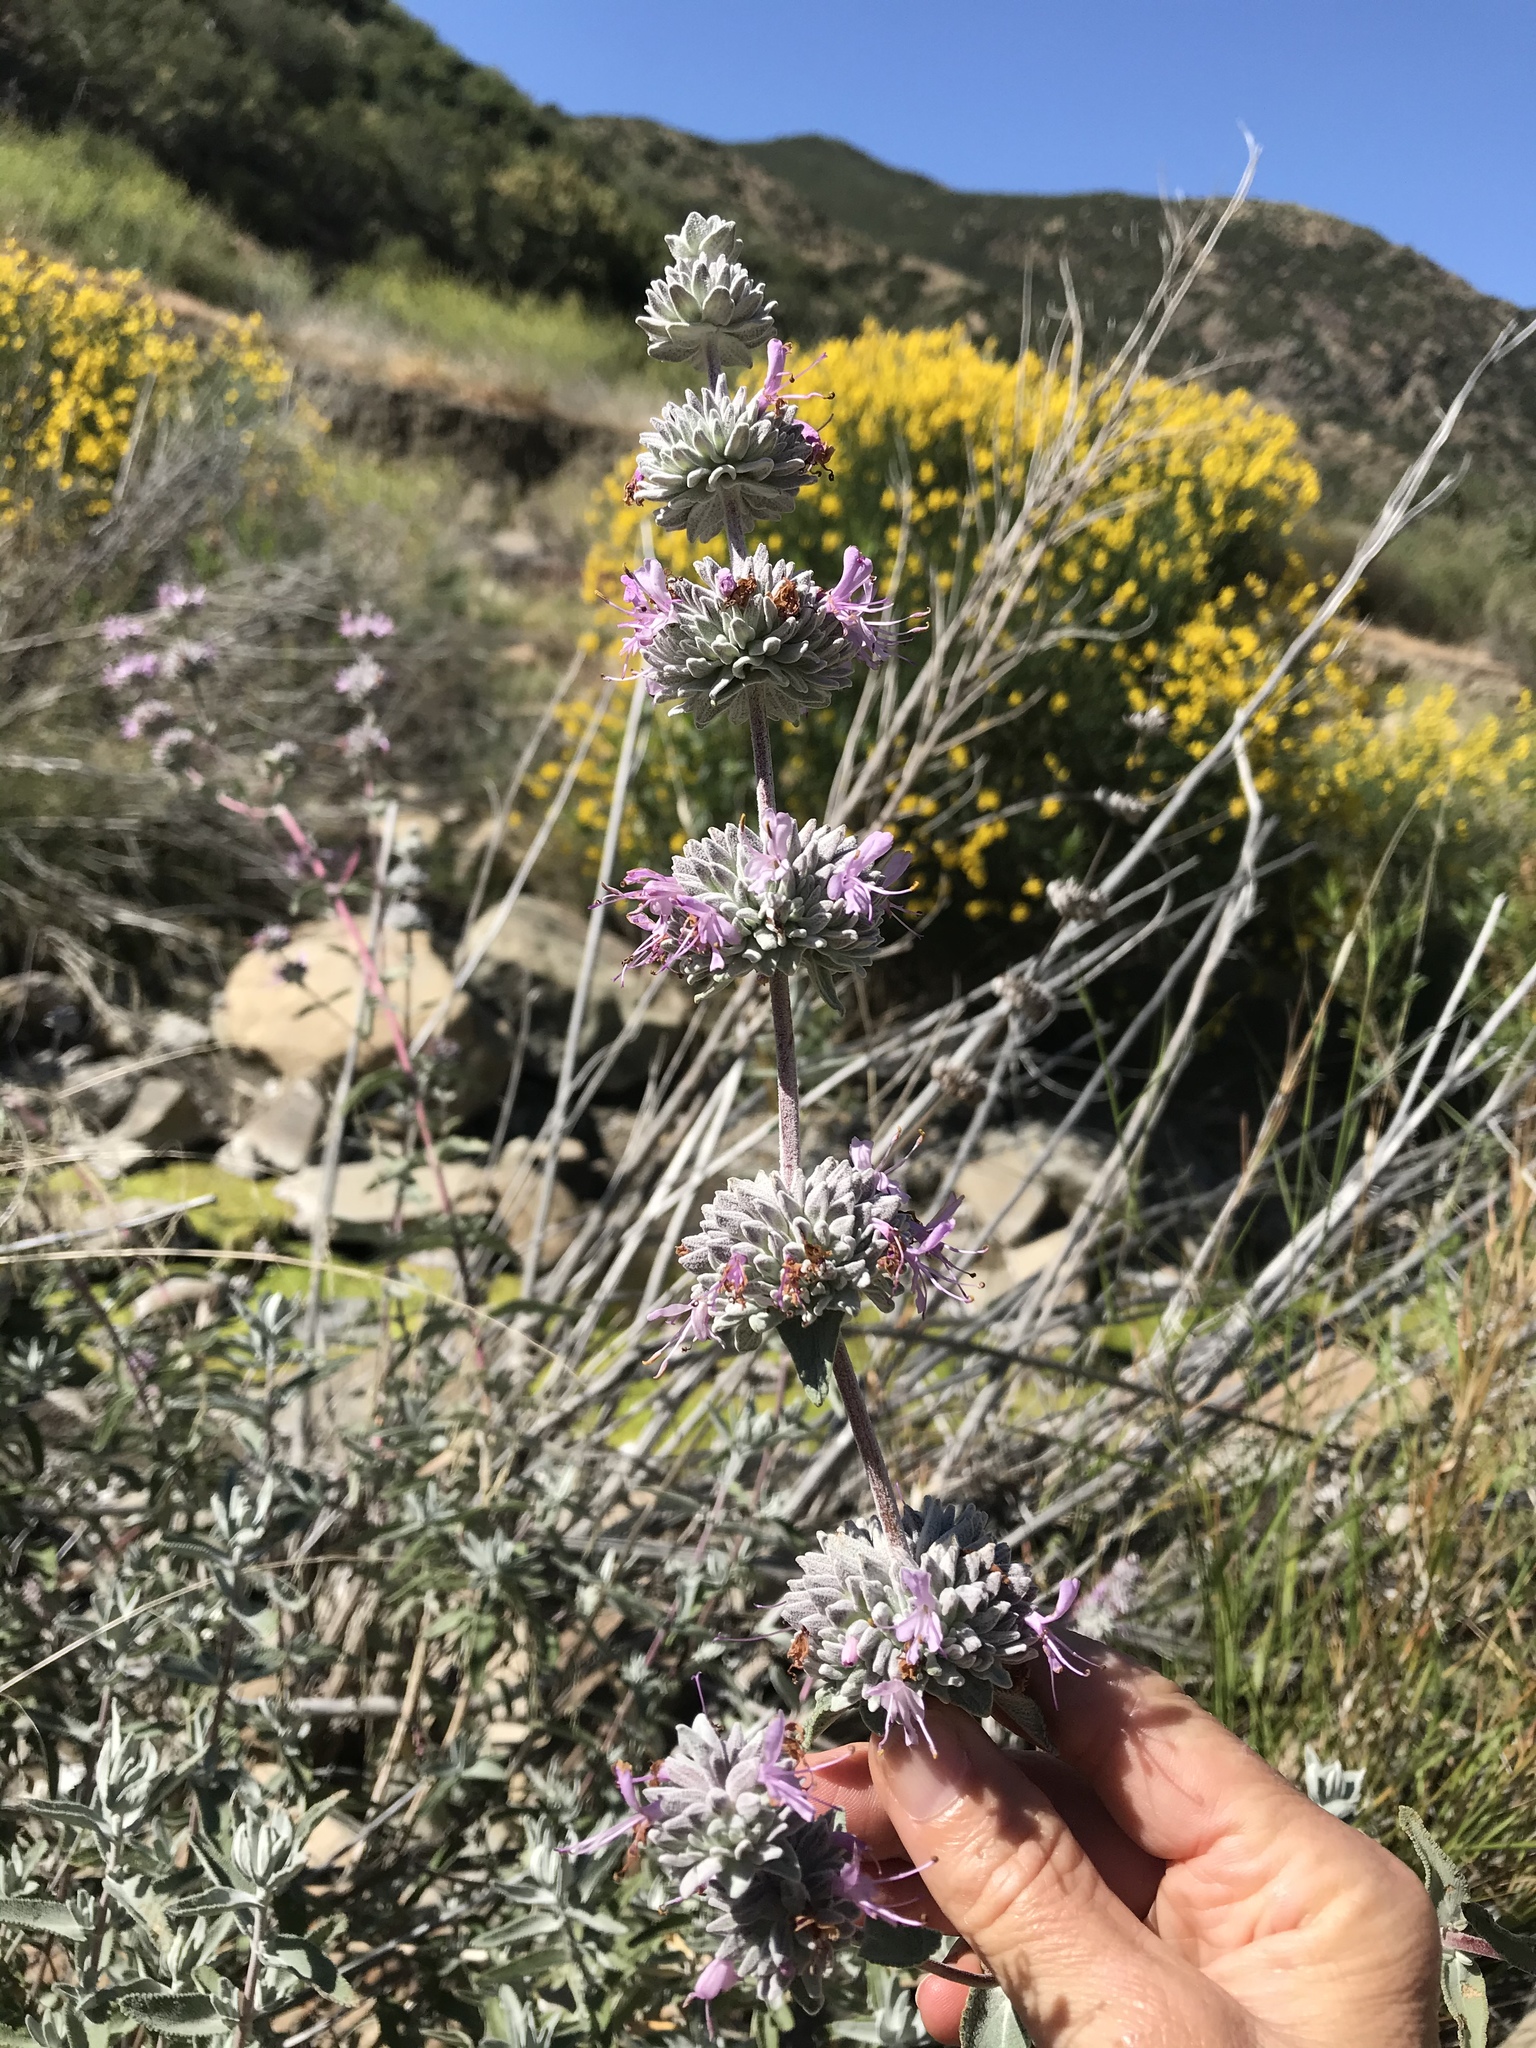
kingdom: Plantae
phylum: Tracheophyta
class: Magnoliopsida
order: Lamiales
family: Lamiaceae
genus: Salvia
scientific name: Salvia leucophylla
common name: Purple sage
